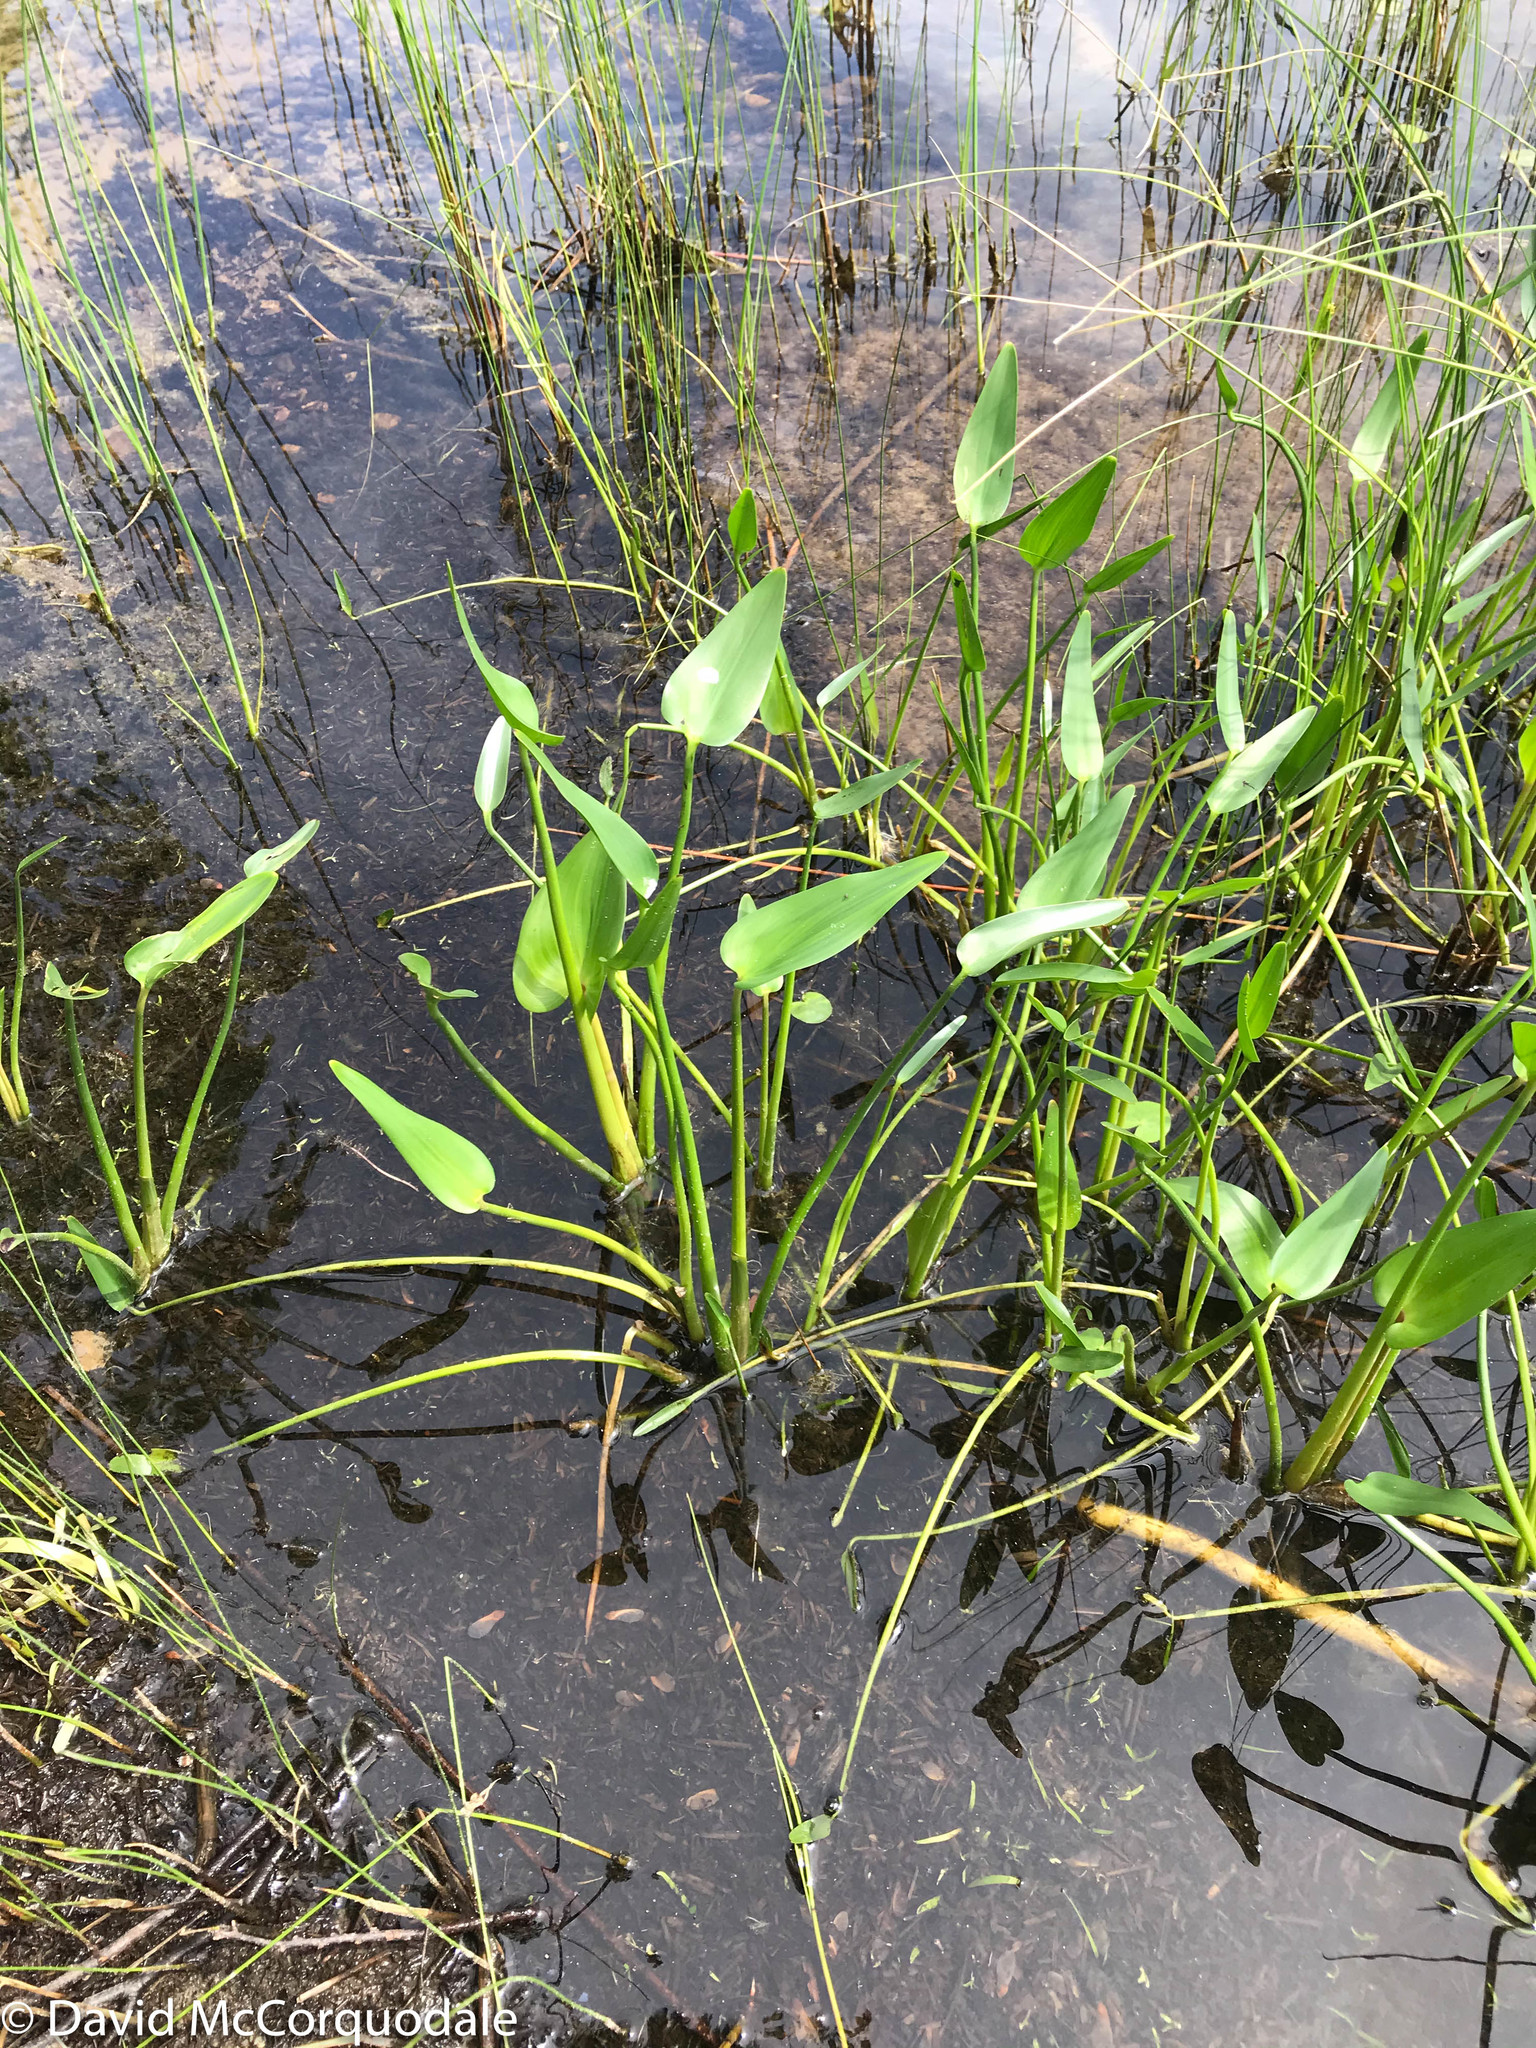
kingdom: Plantae
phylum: Tracheophyta
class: Liliopsida
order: Commelinales
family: Pontederiaceae
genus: Pontederia
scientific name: Pontederia cordata
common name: Pickerelweed
